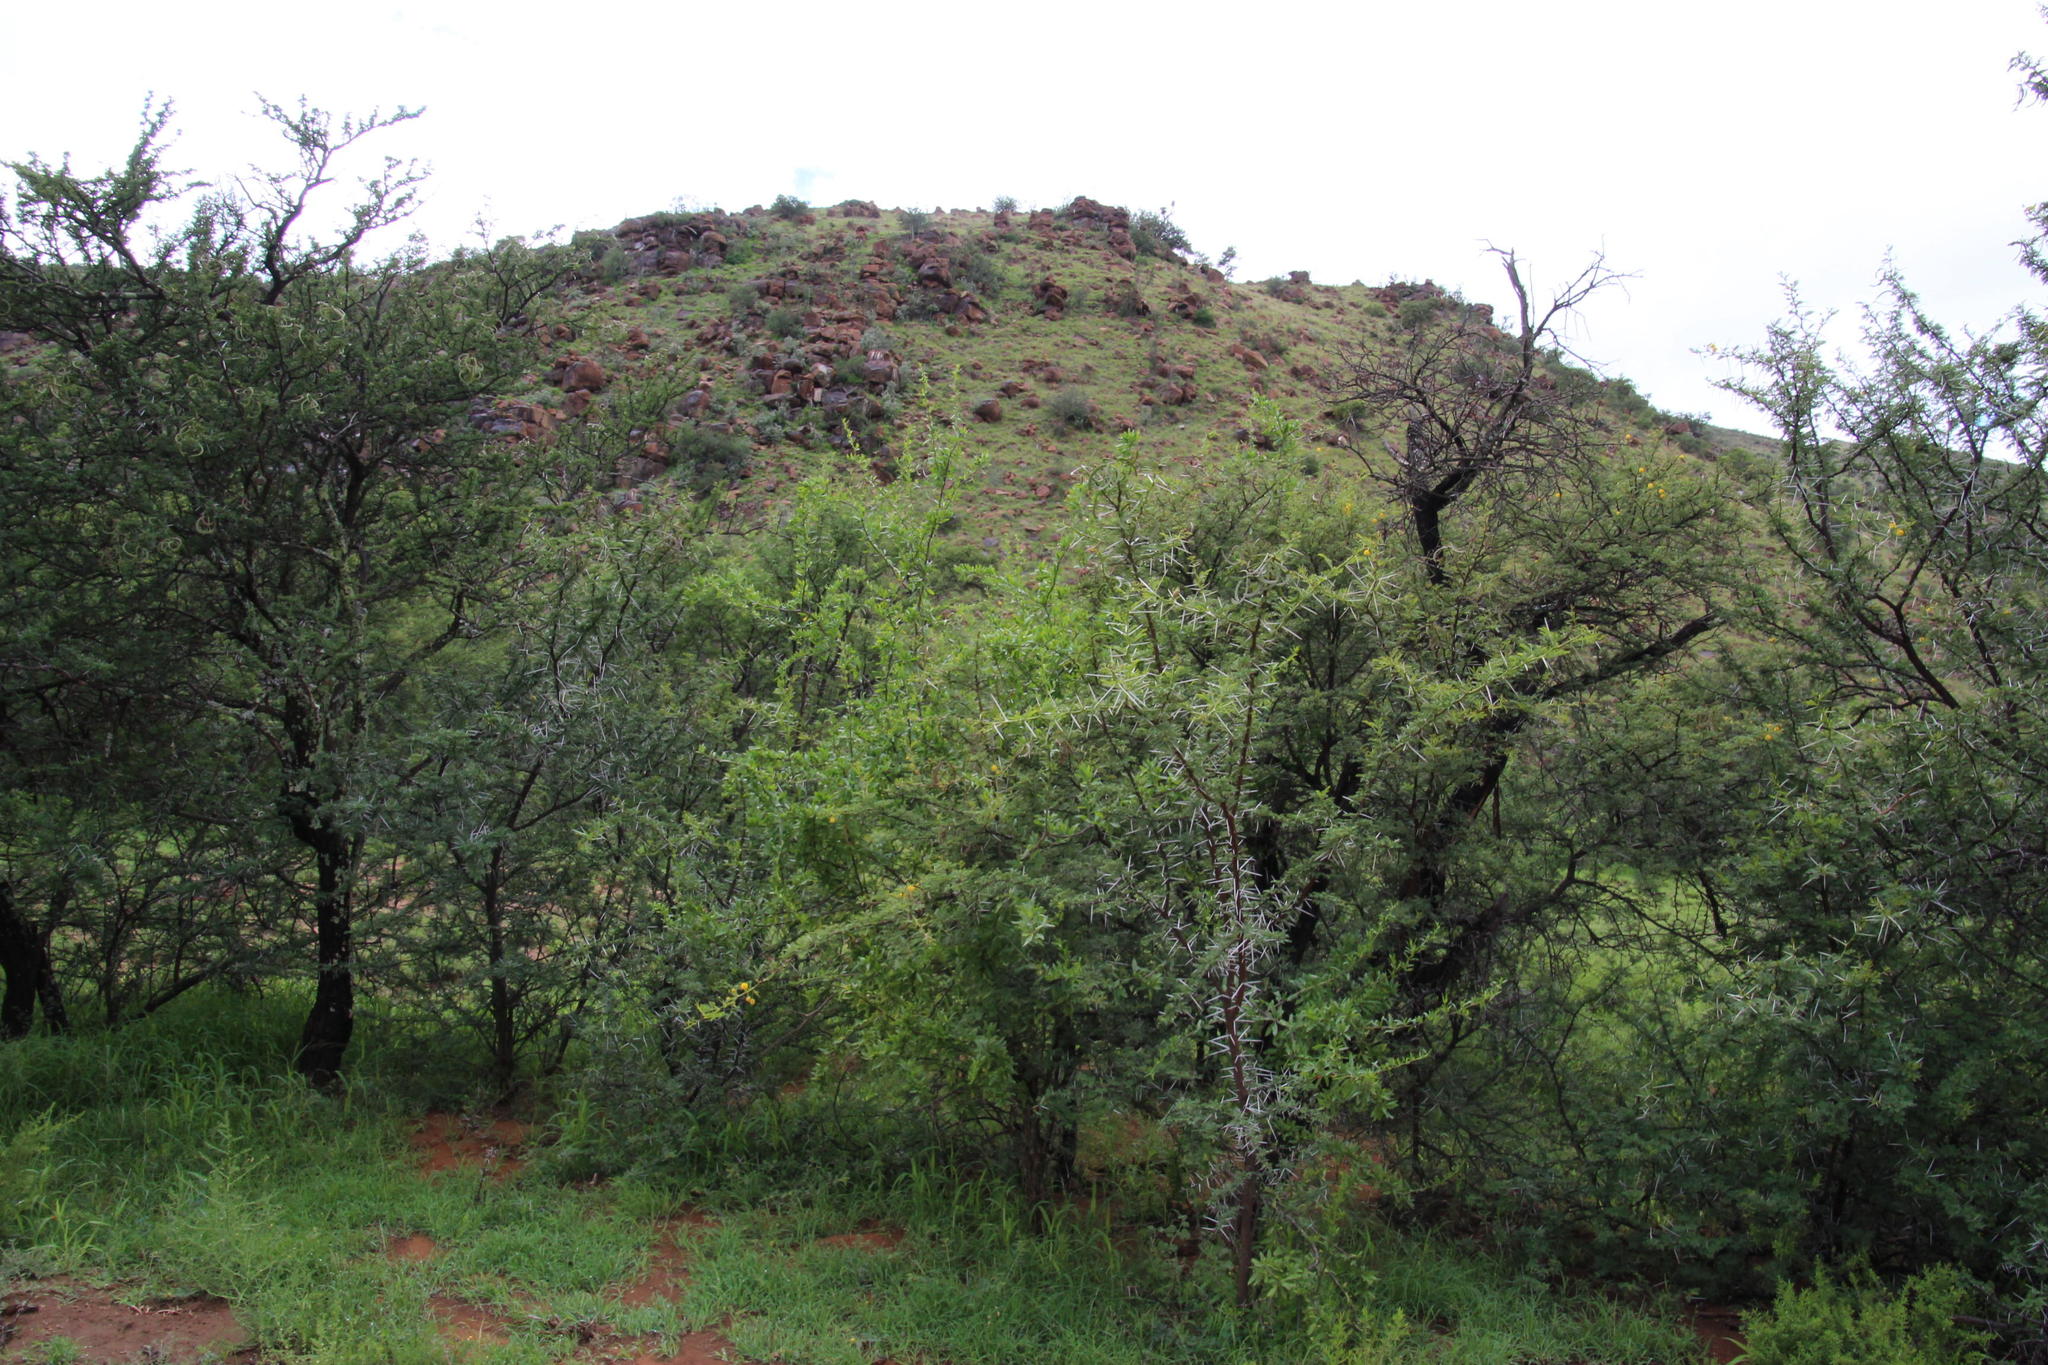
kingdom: Plantae
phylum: Tracheophyta
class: Magnoliopsida
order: Fabales
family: Fabaceae
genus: Vachellia
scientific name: Vachellia karroo
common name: Sweet thorn
